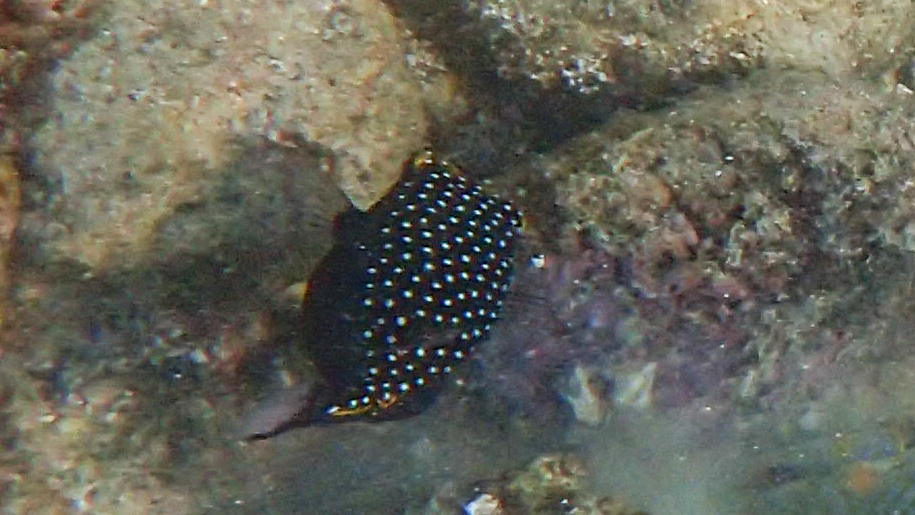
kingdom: Animalia
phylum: Chordata
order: Tetraodontiformes
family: Ostraciidae
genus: Ostracion
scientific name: Ostracion meleagris
